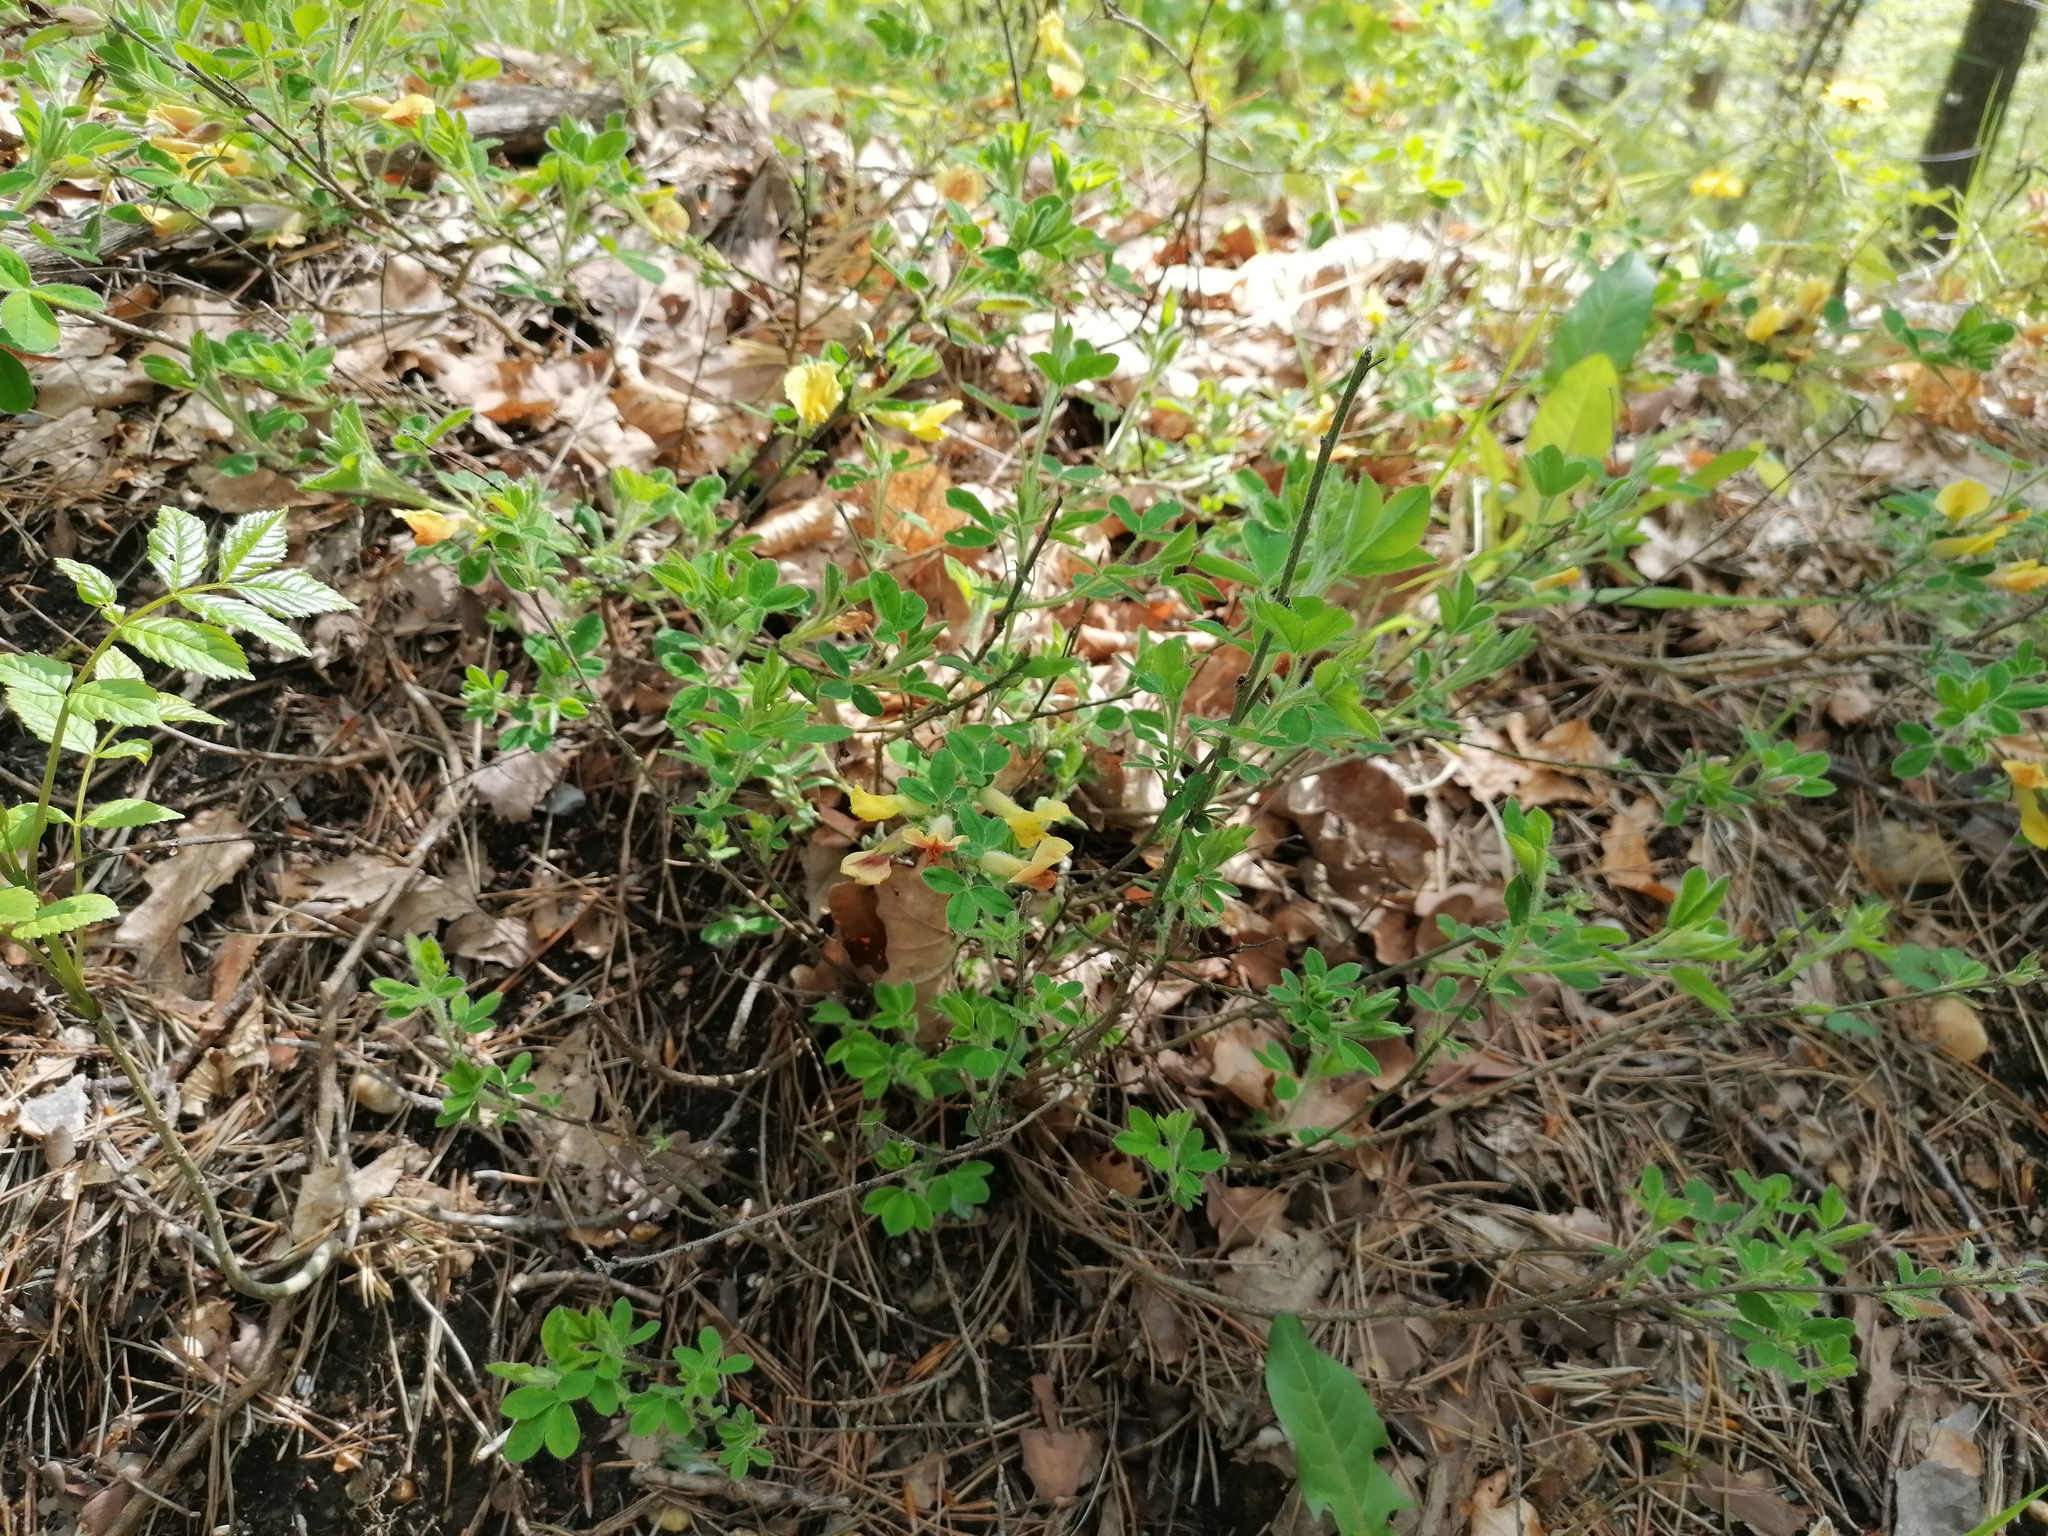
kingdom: Plantae
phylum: Tracheophyta
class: Magnoliopsida
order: Fabales
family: Fabaceae
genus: Chamaecytisus
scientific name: Chamaecytisus hirsutus
